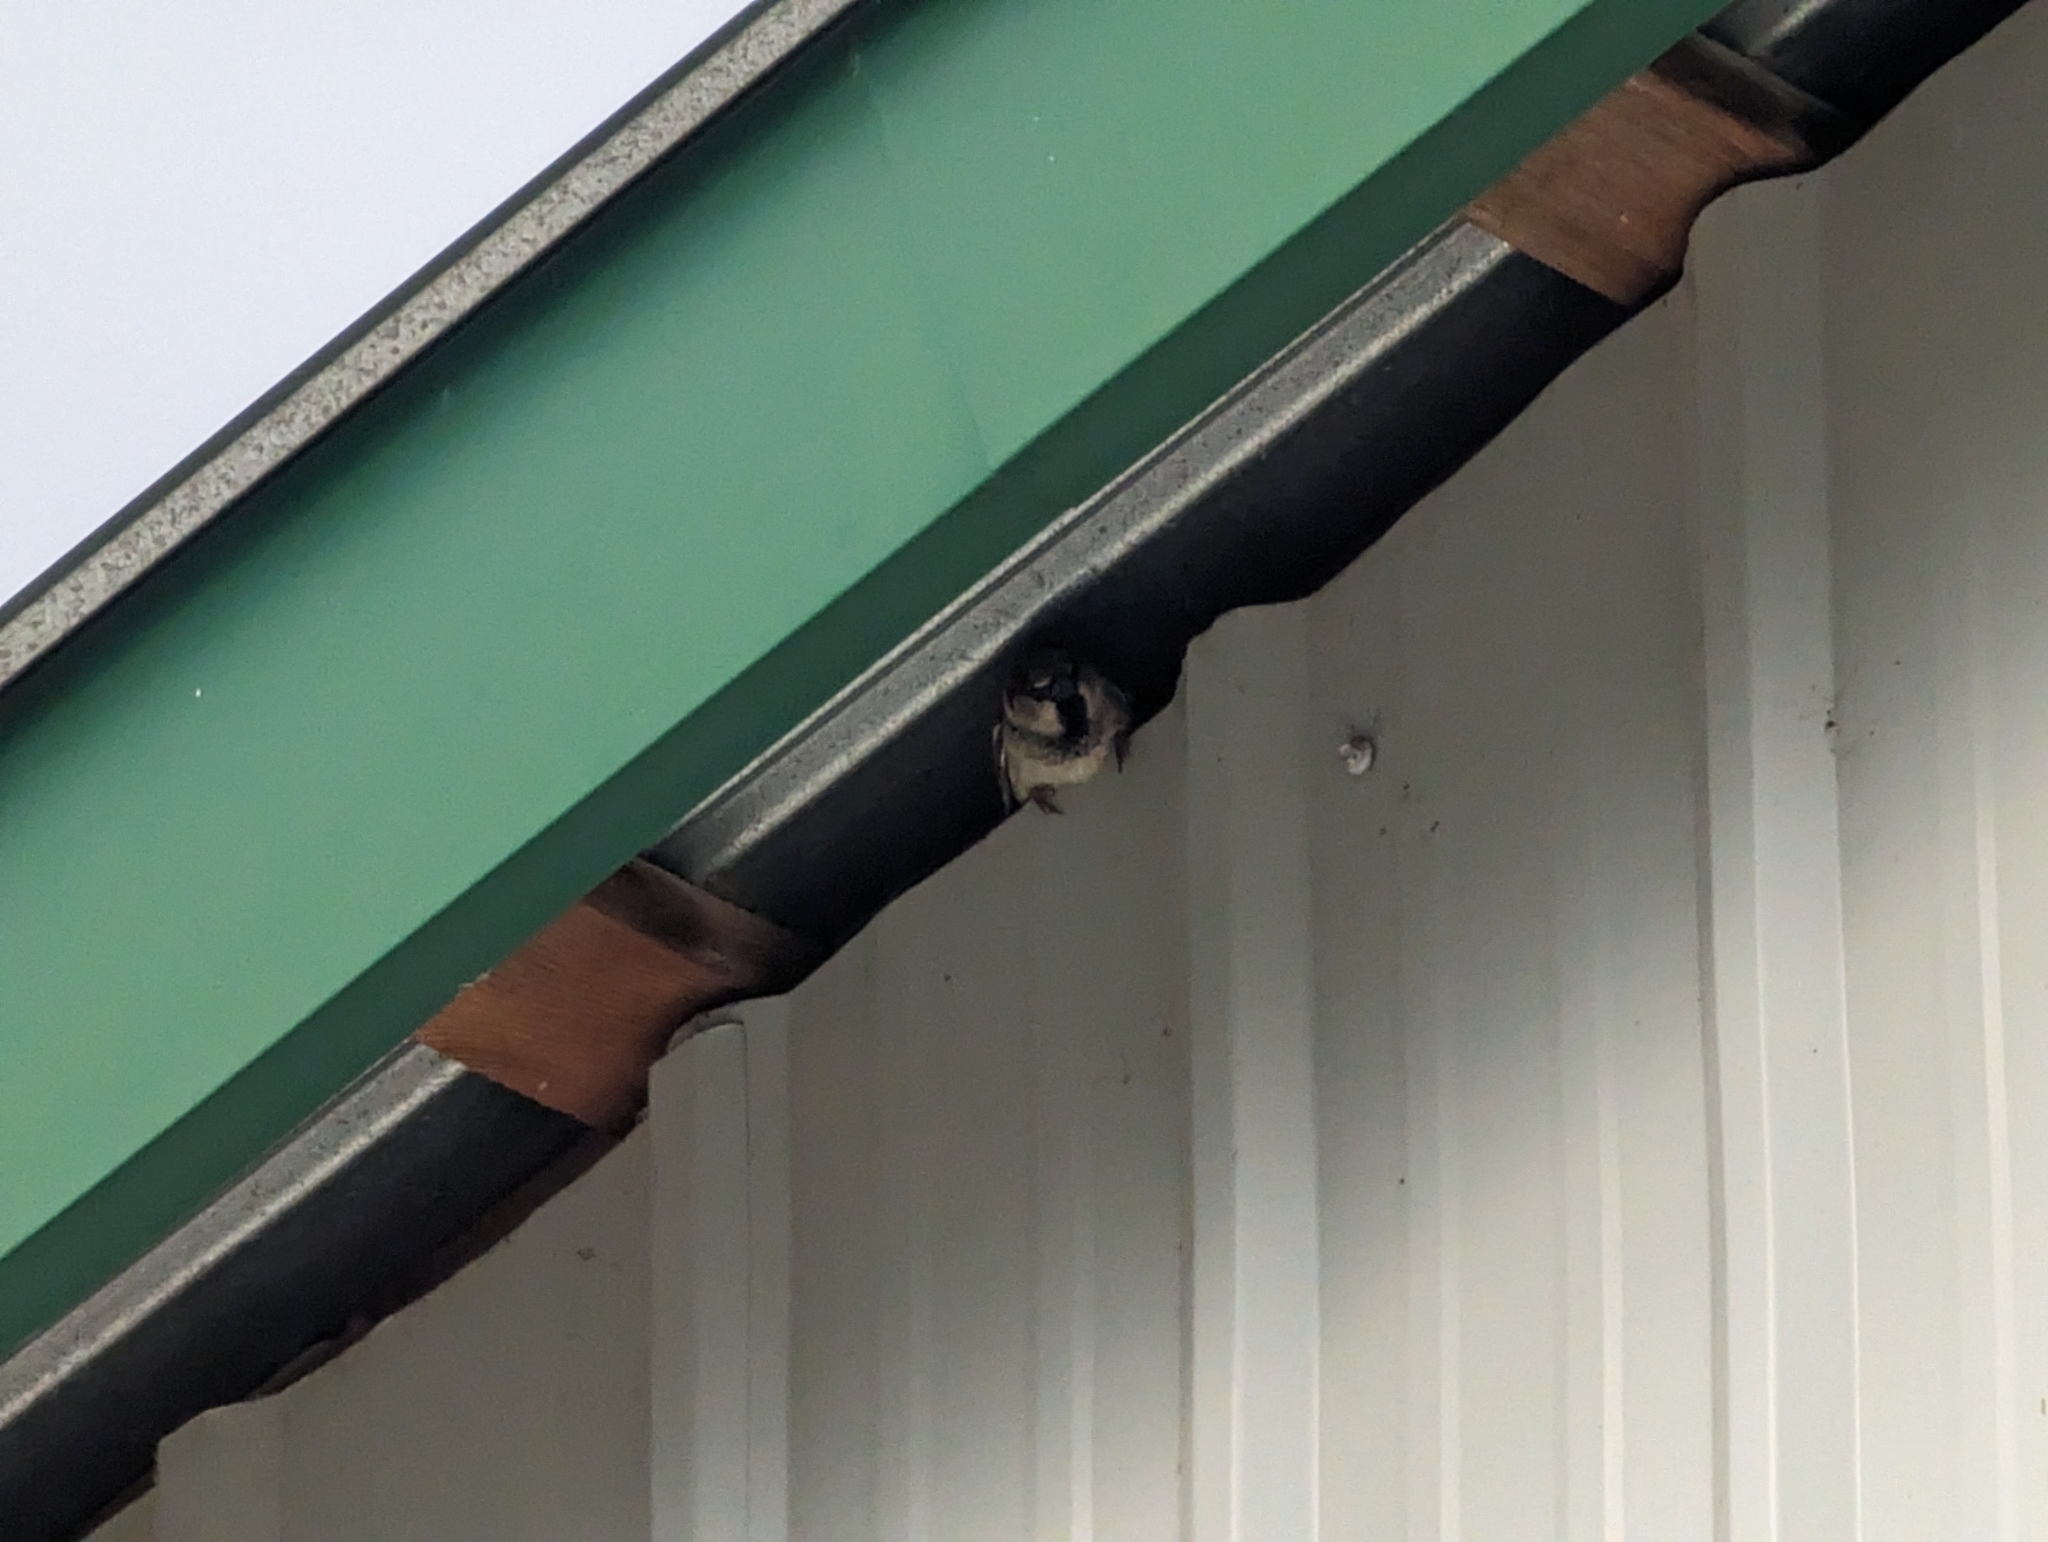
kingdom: Animalia
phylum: Chordata
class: Aves
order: Passeriformes
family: Passeridae
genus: Passer
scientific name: Passer domesticus
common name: House sparrow
